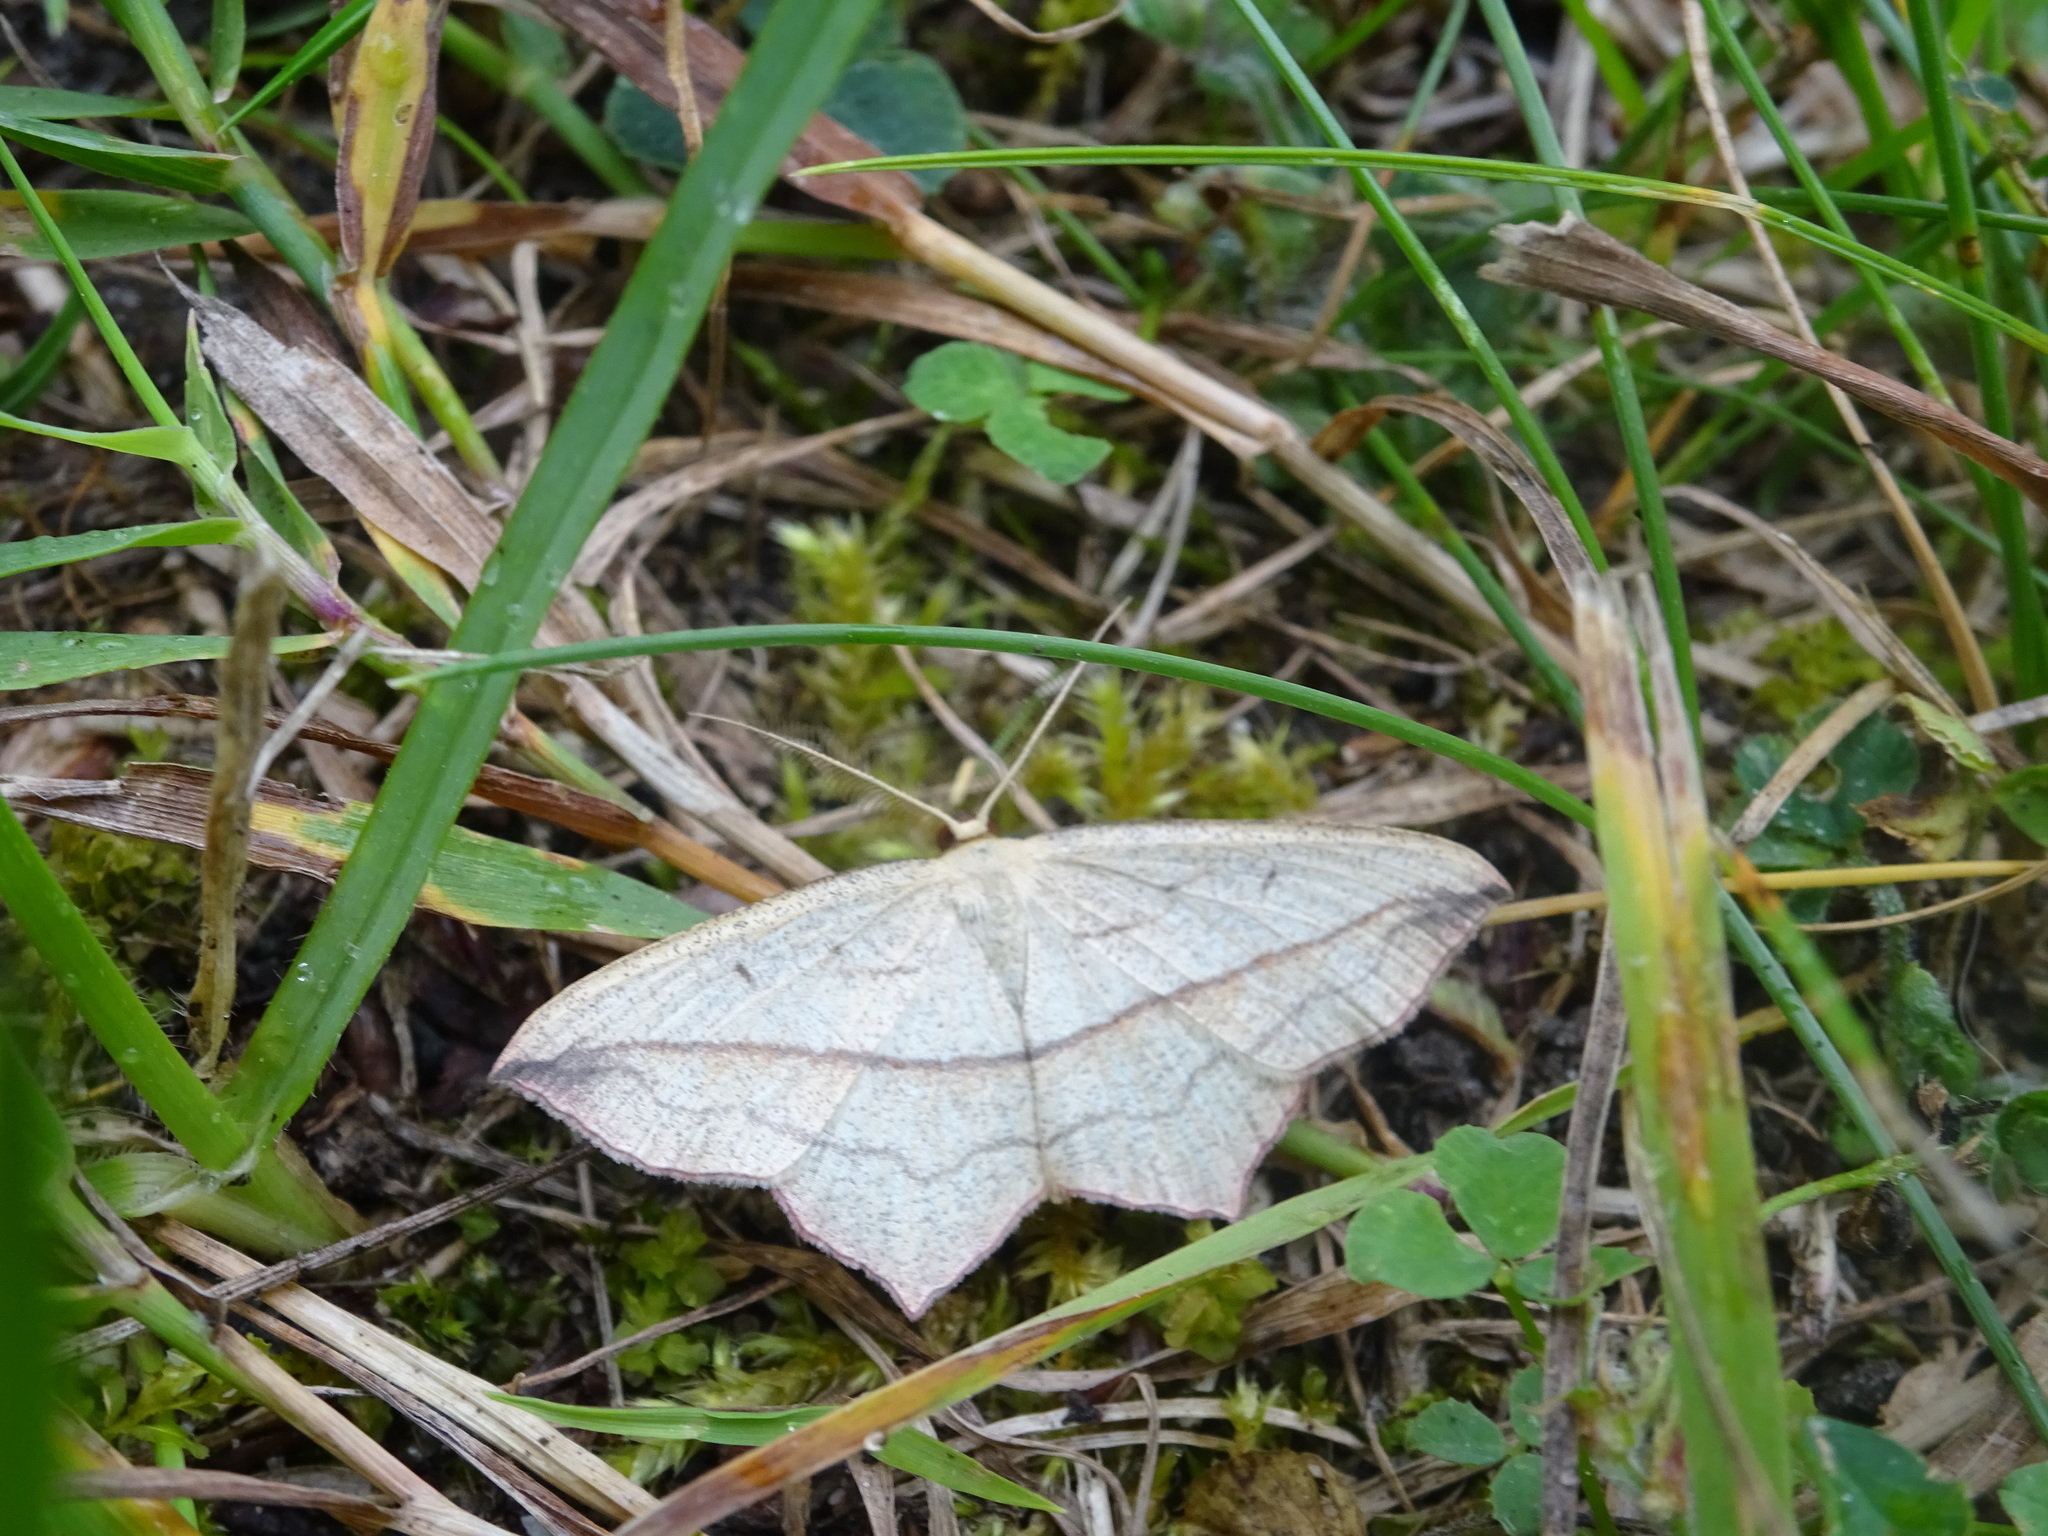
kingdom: Animalia
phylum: Arthropoda
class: Insecta
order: Lepidoptera
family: Geometridae
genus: Timandra
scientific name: Timandra comae
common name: Blood-vein
